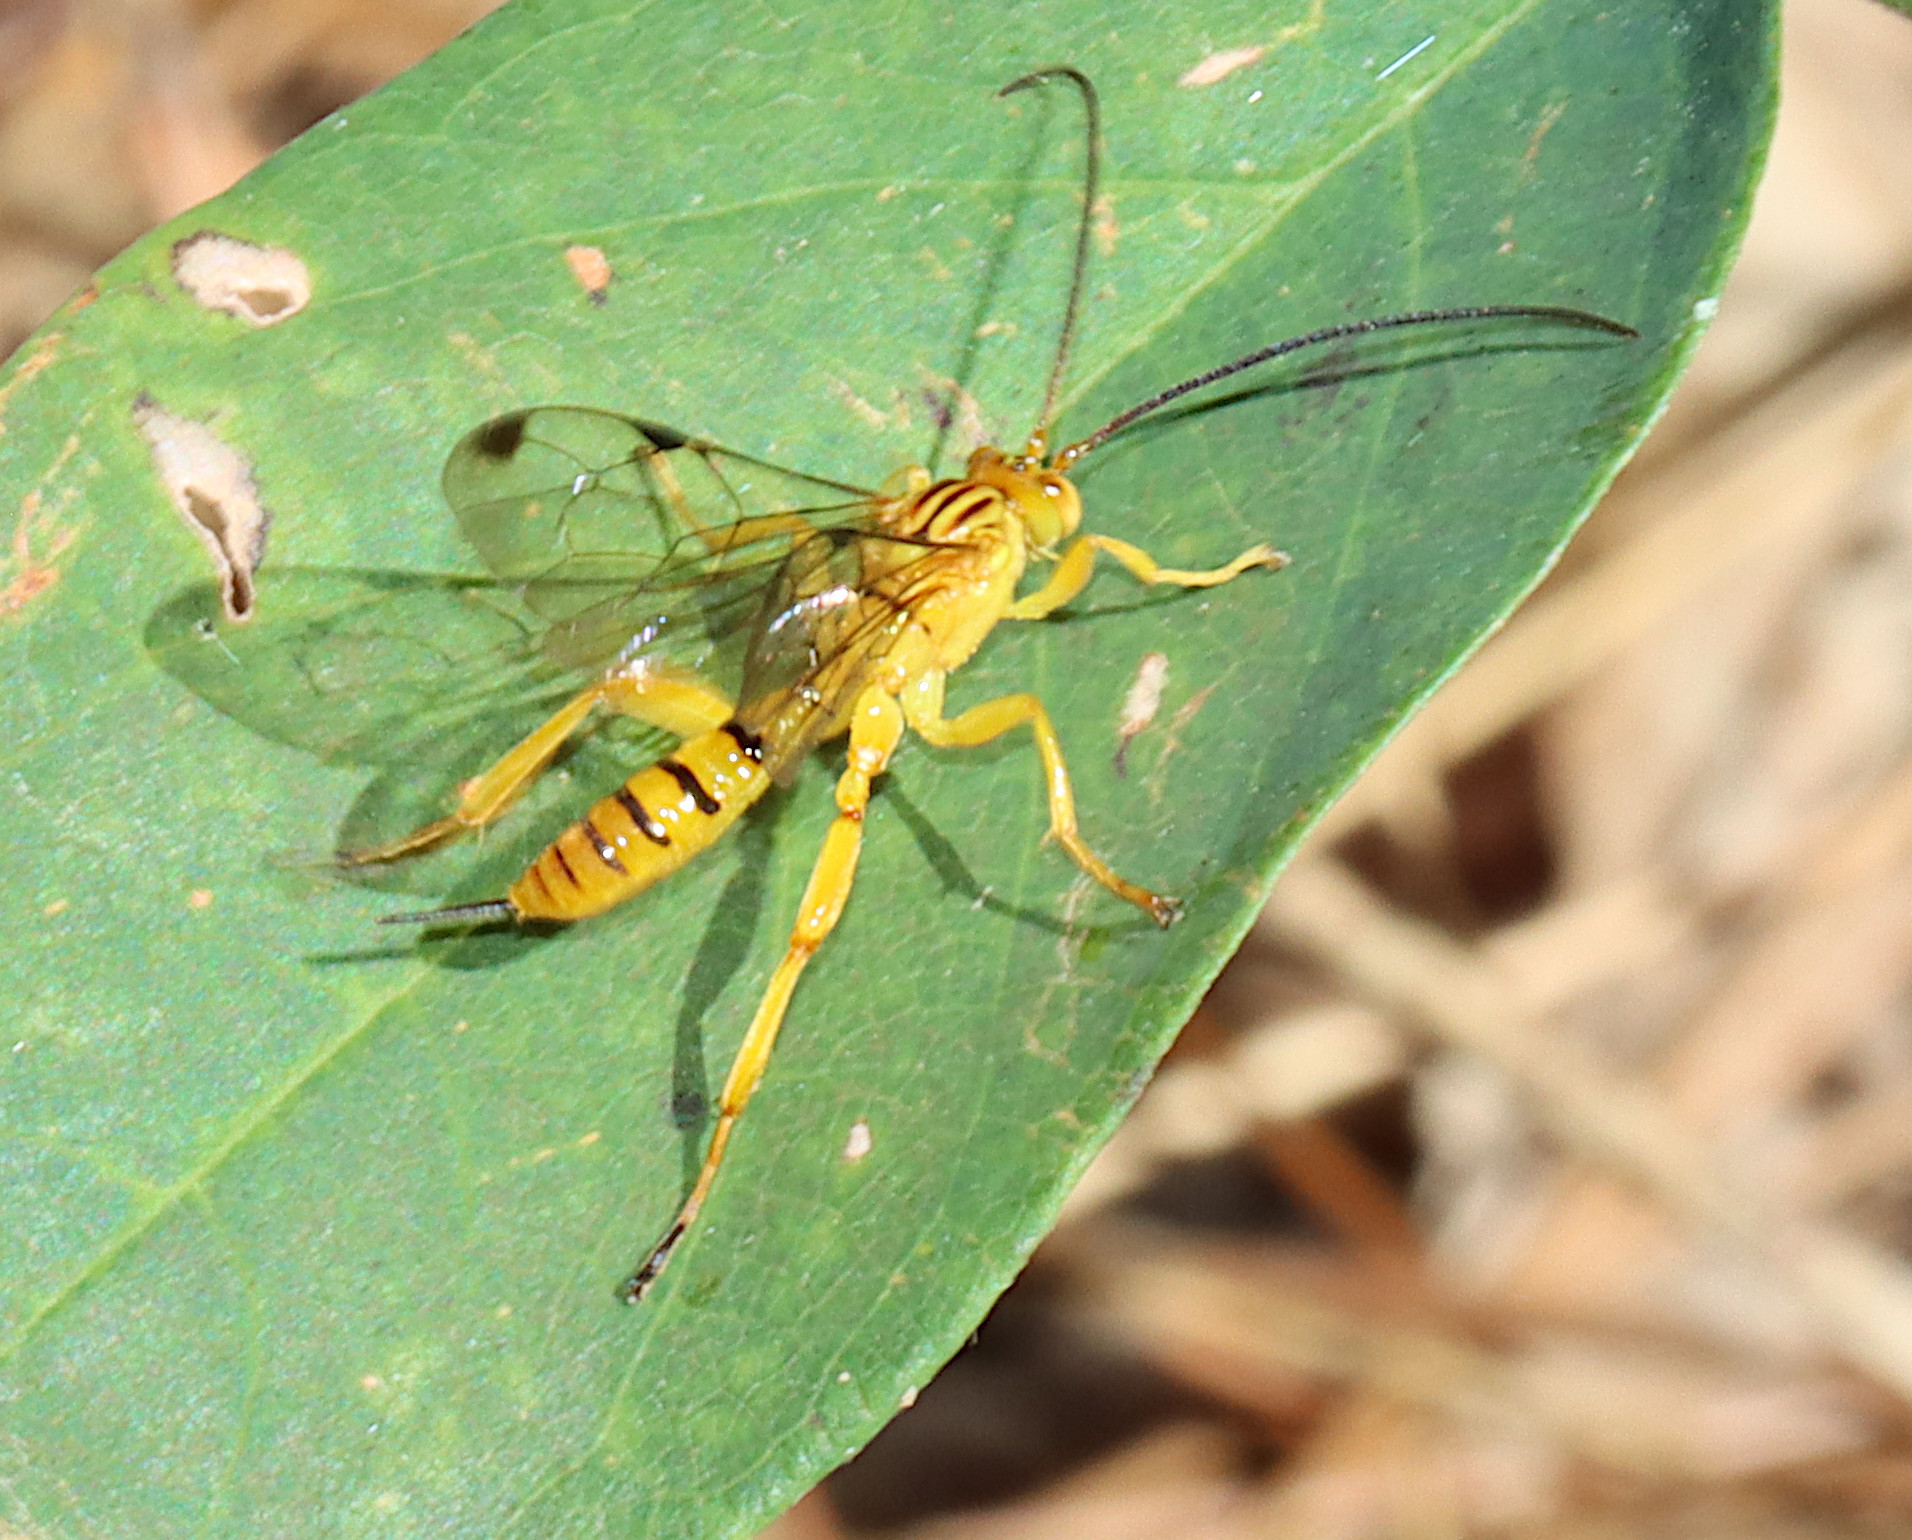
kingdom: Animalia
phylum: Arthropoda
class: Insecta
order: Hymenoptera
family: Ichneumonidae
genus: Neotheronia
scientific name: Neotheronia septemtrionalis
